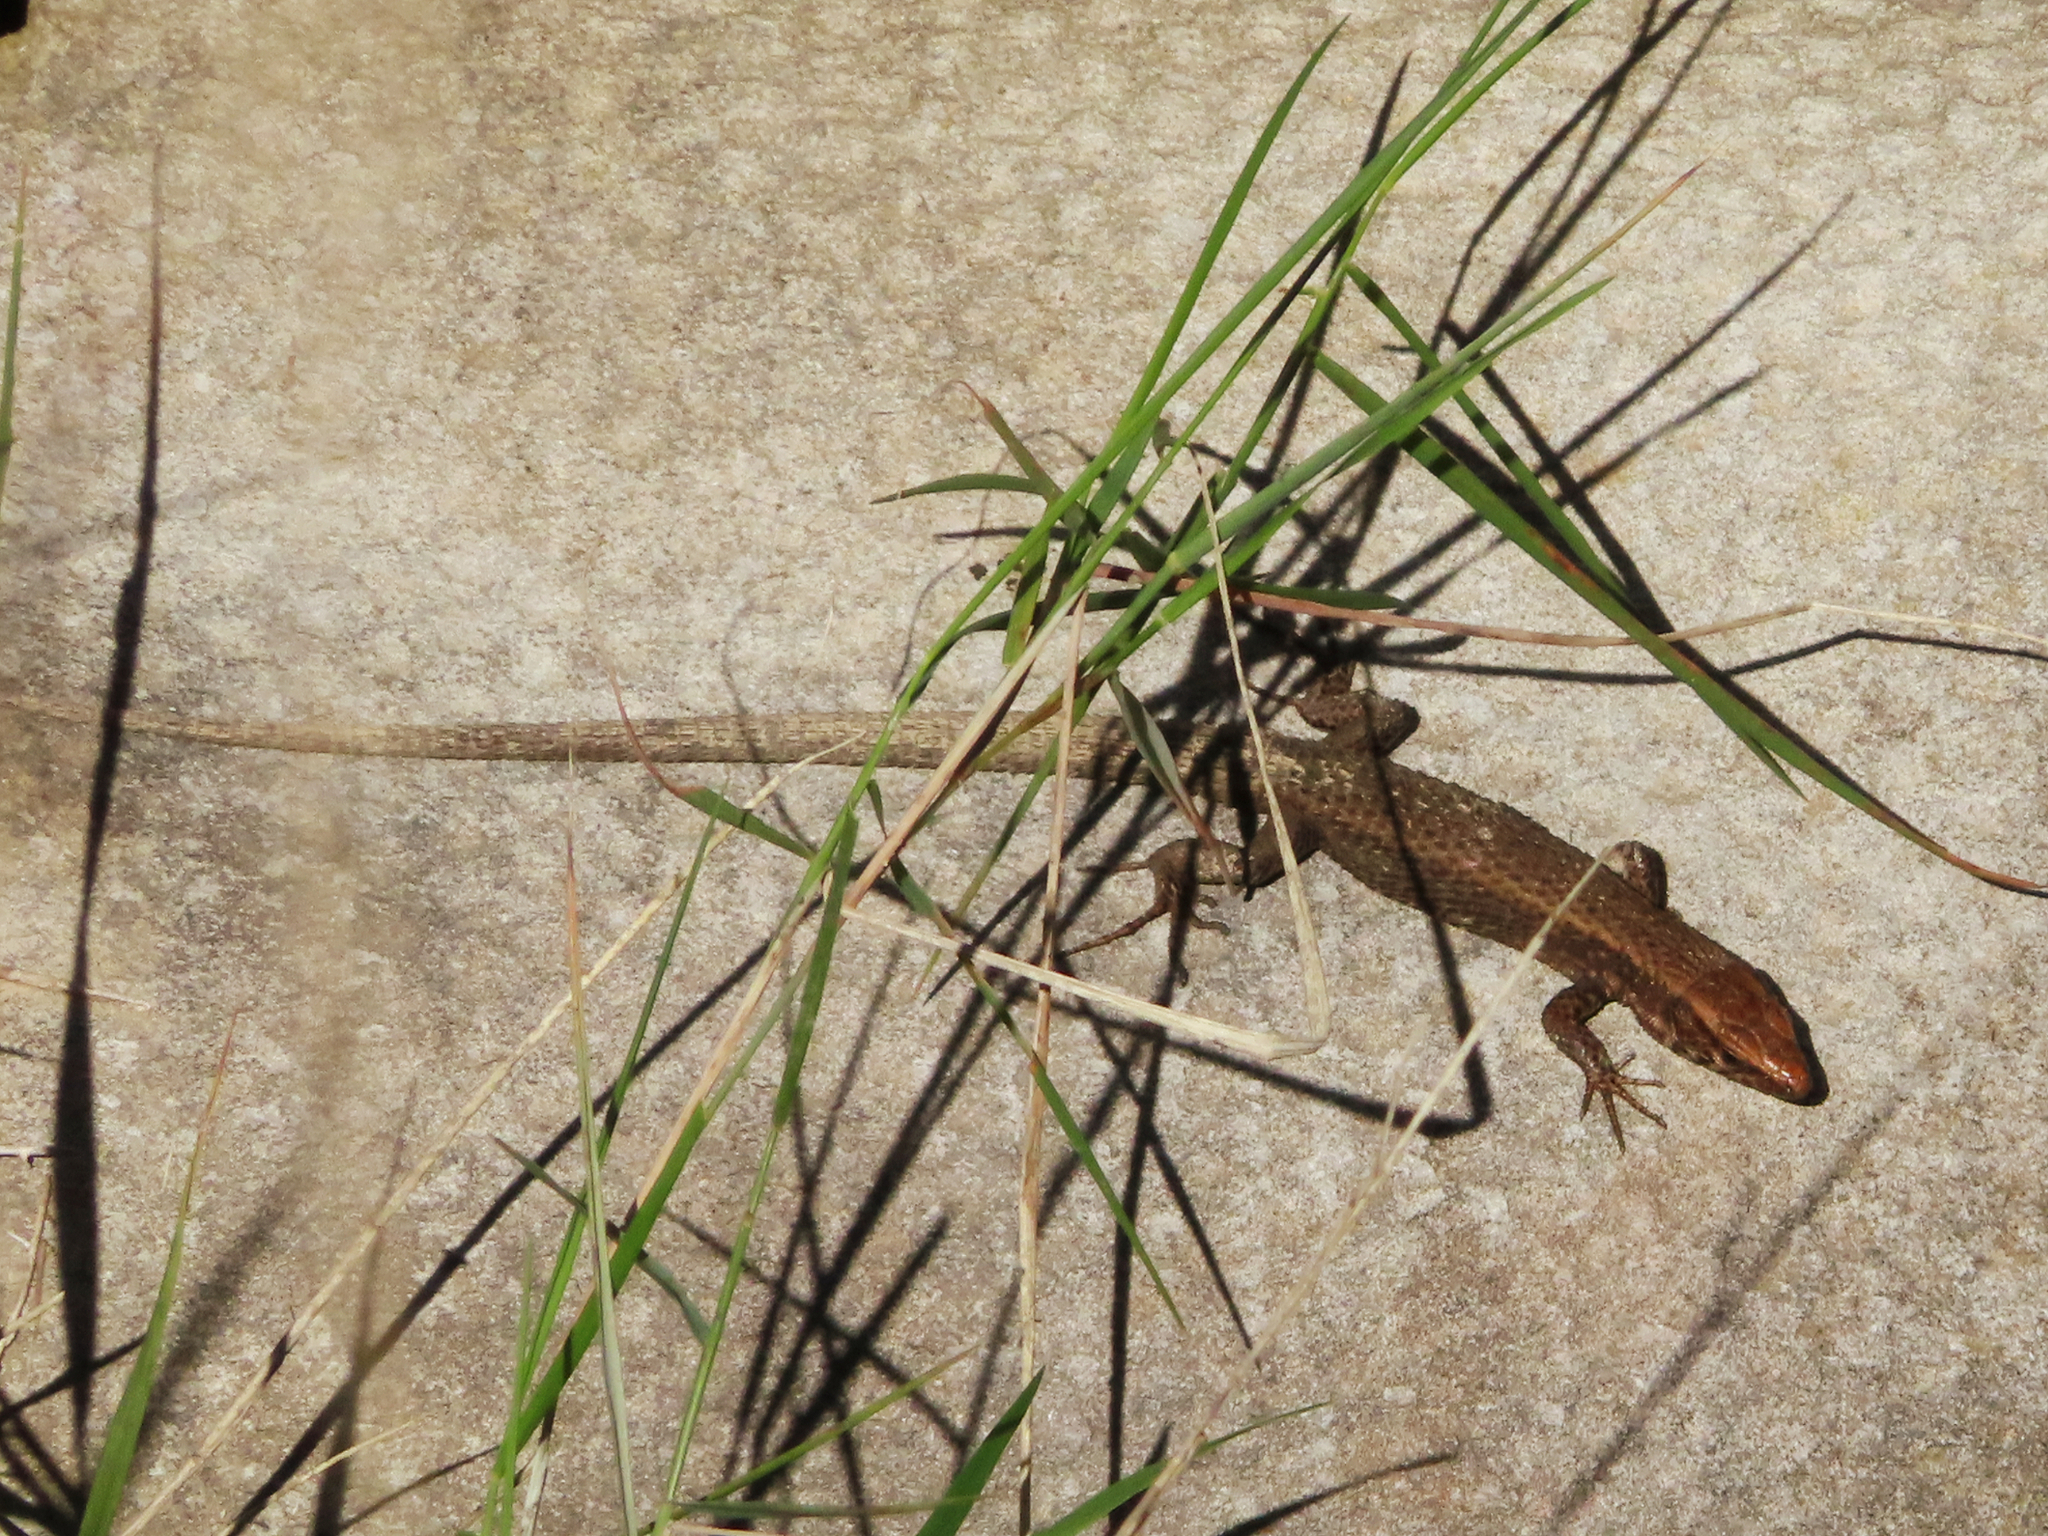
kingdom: Animalia
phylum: Chordata
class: Squamata
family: Lacertidae
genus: Algyroides
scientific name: Algyroides moreoticus
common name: Greek algyroides
